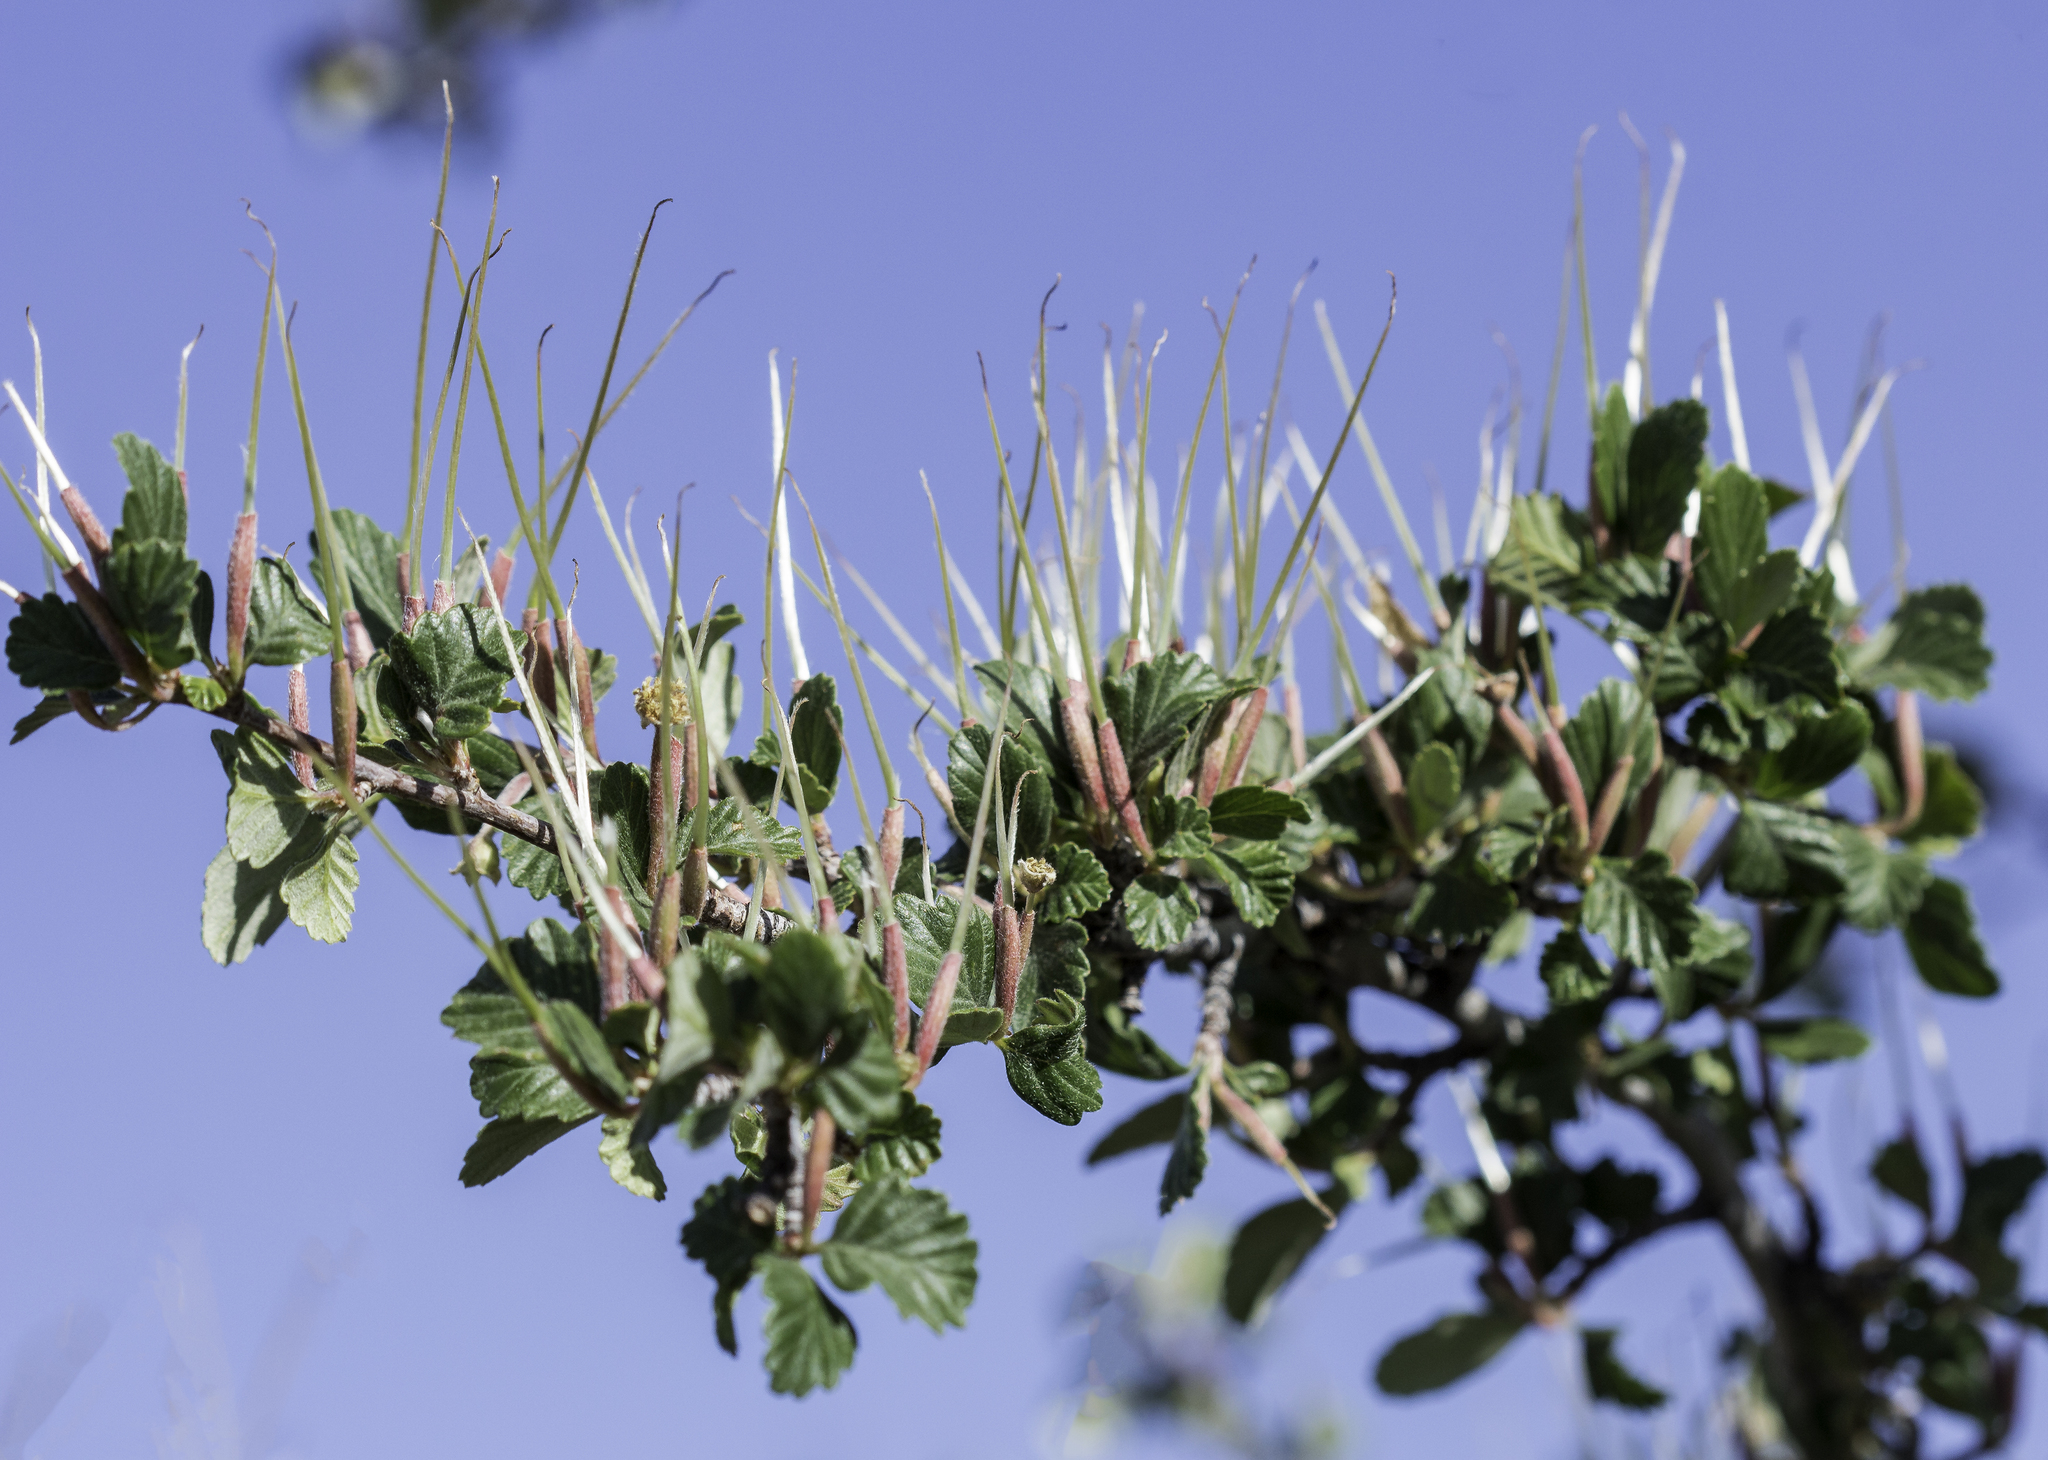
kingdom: Plantae
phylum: Tracheophyta
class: Magnoliopsida
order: Rosales
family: Rosaceae
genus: Cercocarpus
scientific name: Cercocarpus montanus
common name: Alder-leaf cercocarpus
